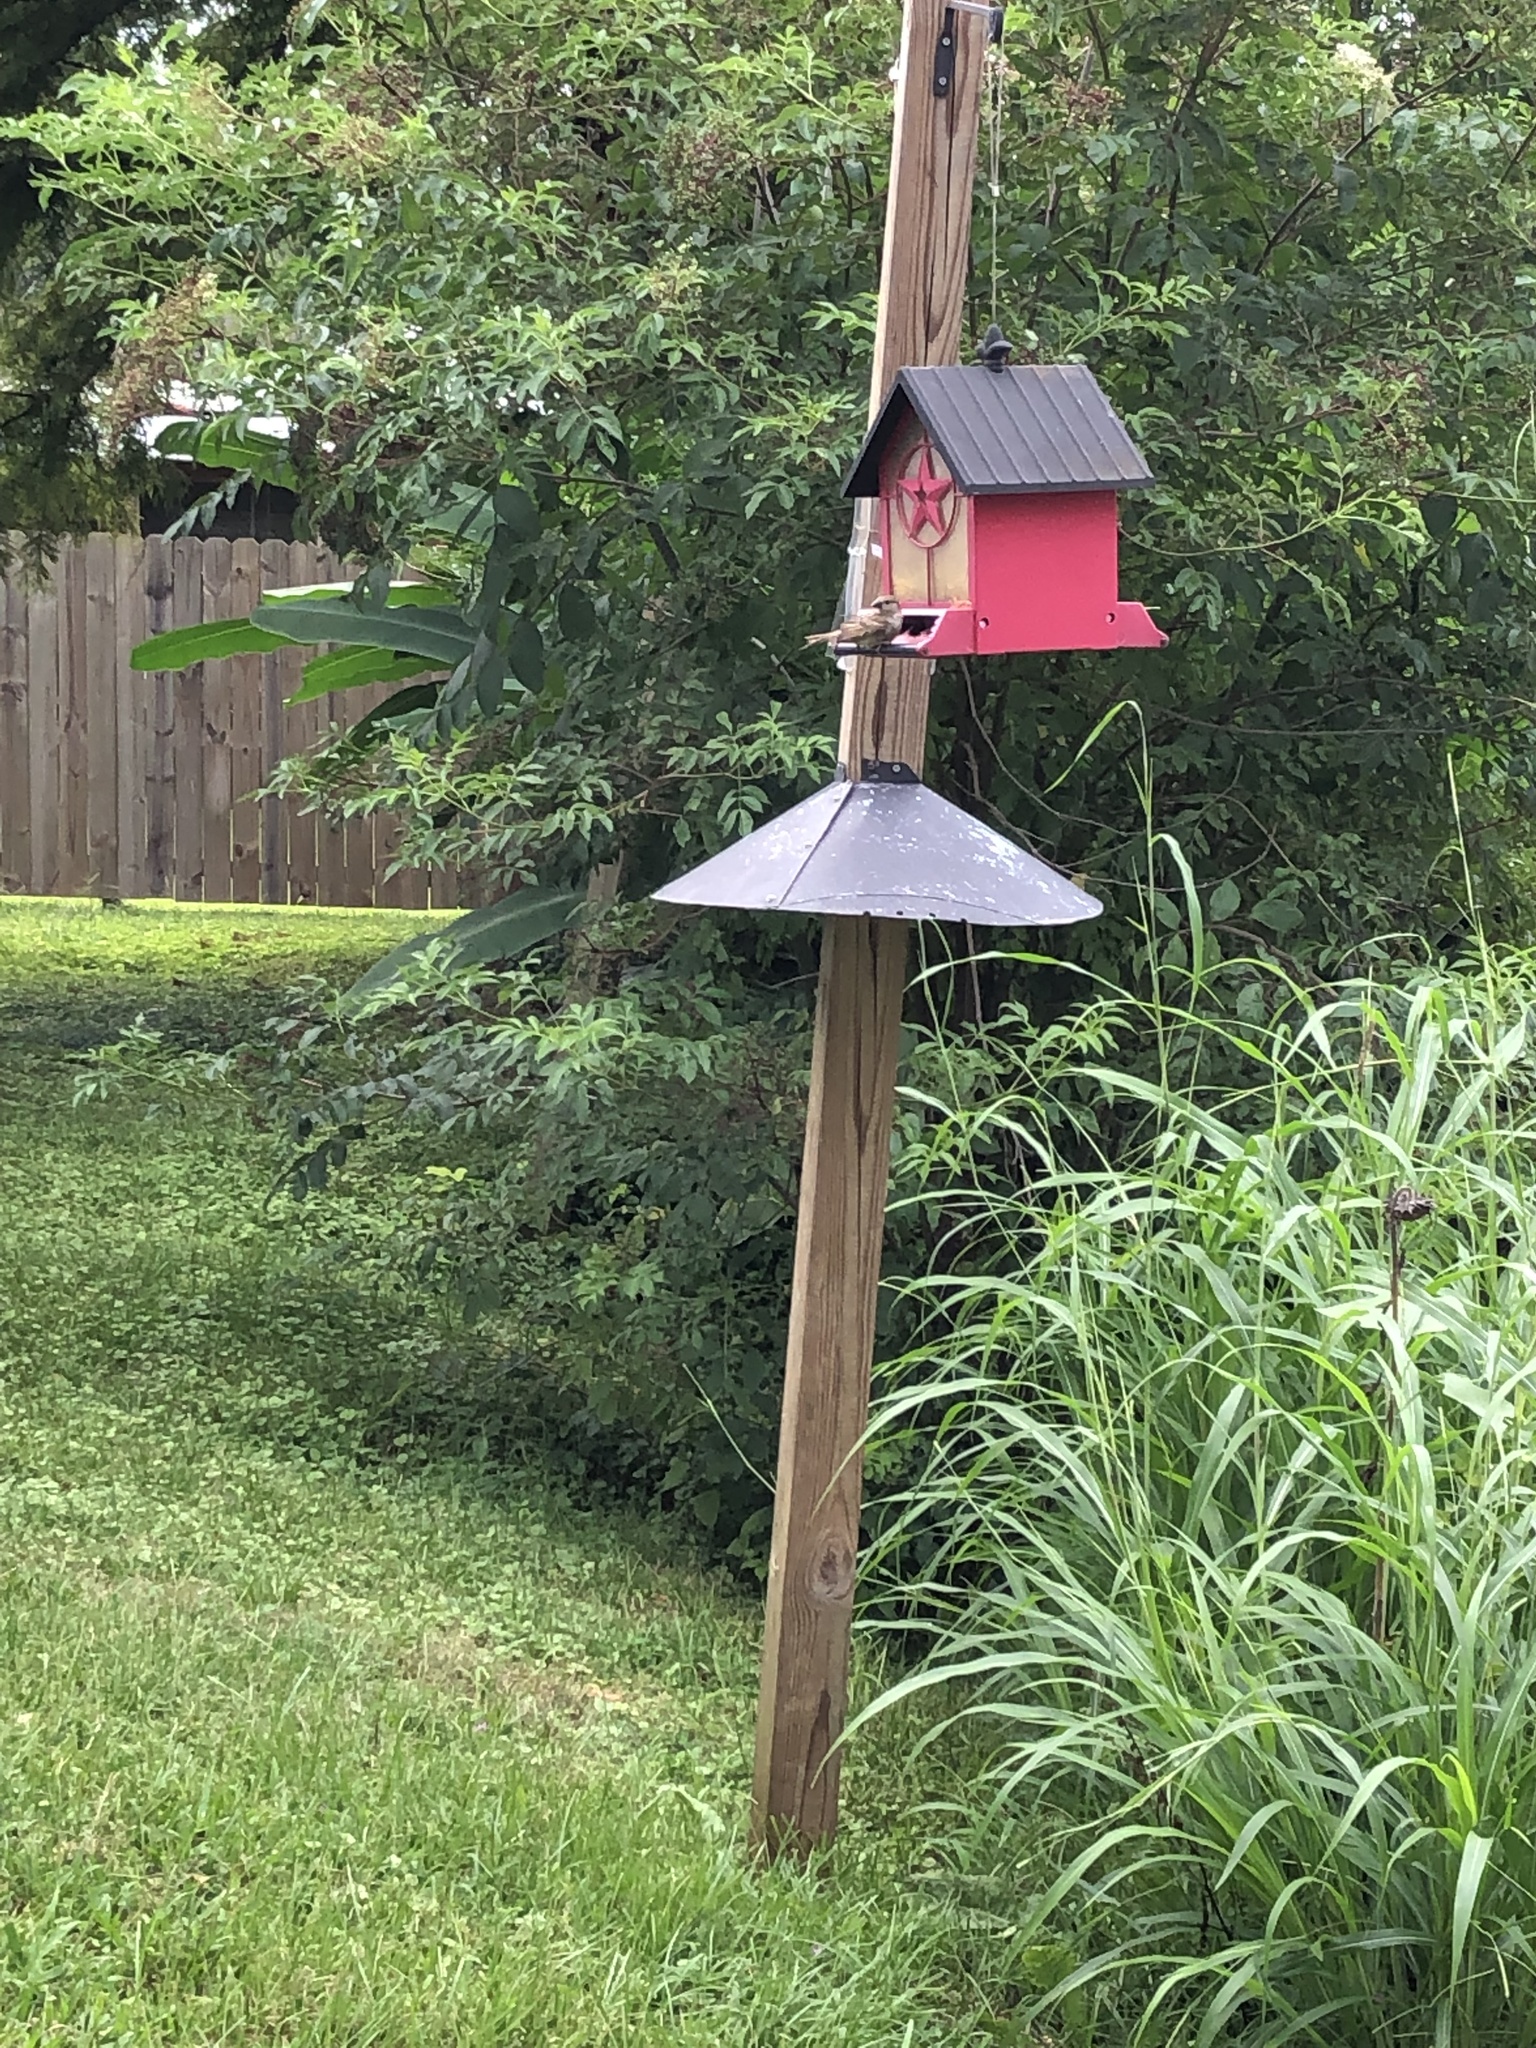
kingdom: Animalia
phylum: Chordata
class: Aves
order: Passeriformes
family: Passeridae
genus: Passer
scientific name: Passer domesticus
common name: House sparrow
